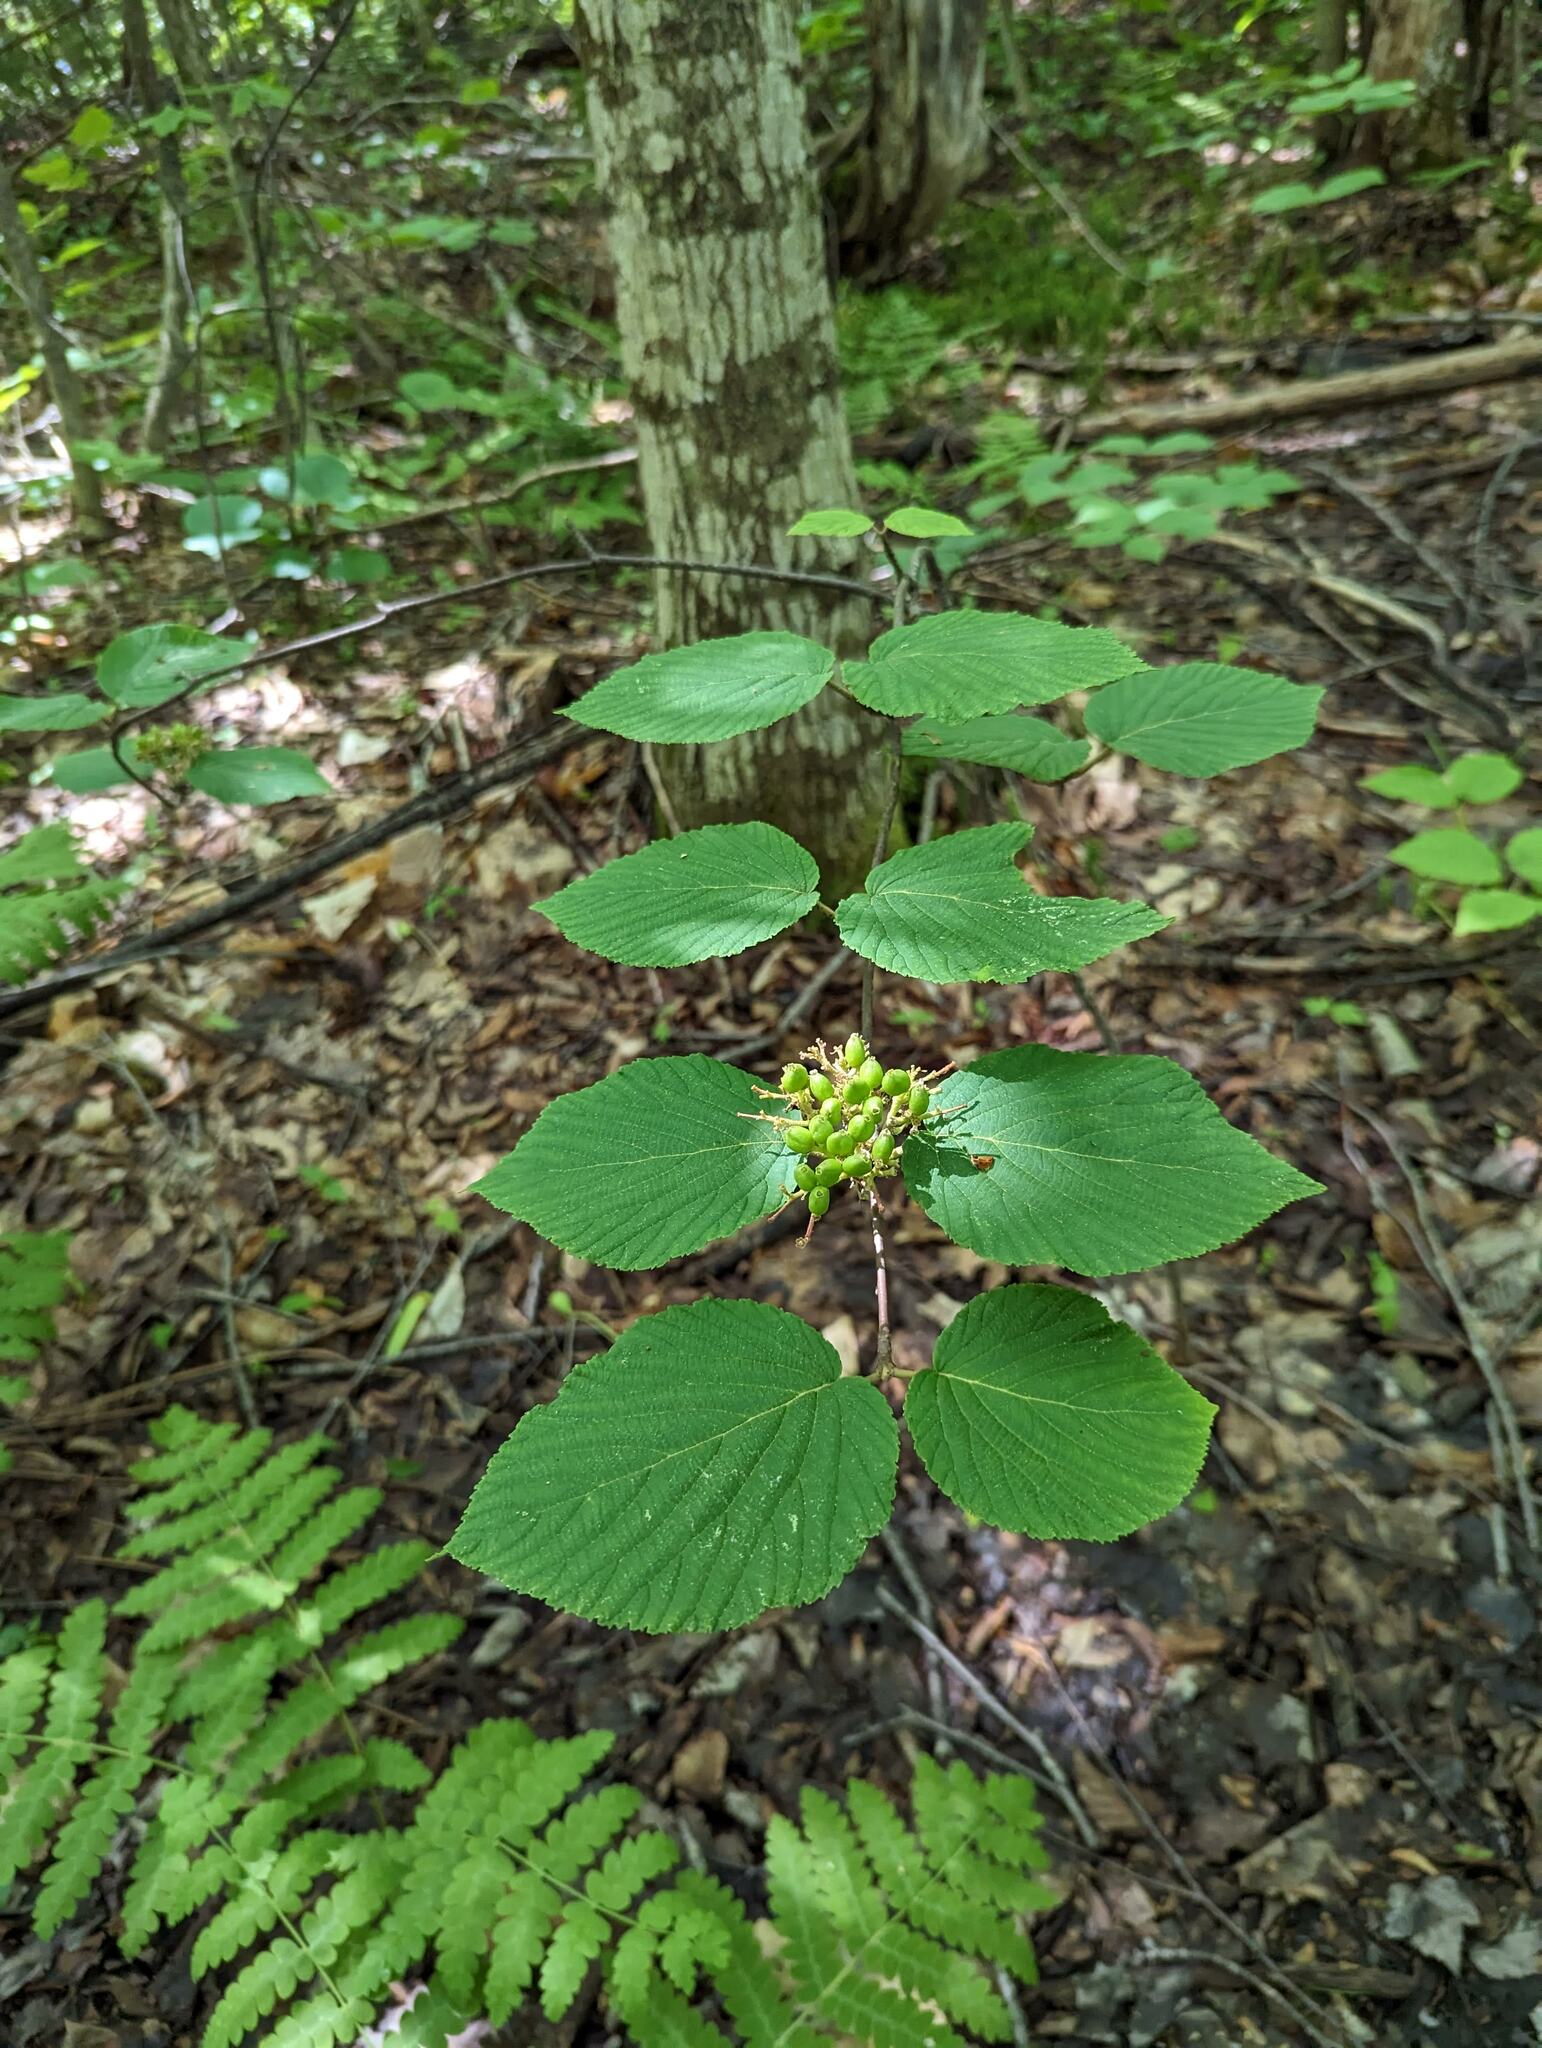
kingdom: Plantae
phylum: Tracheophyta
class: Magnoliopsida
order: Dipsacales
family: Viburnaceae
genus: Viburnum
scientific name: Viburnum lantanoides
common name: Hobblebush
